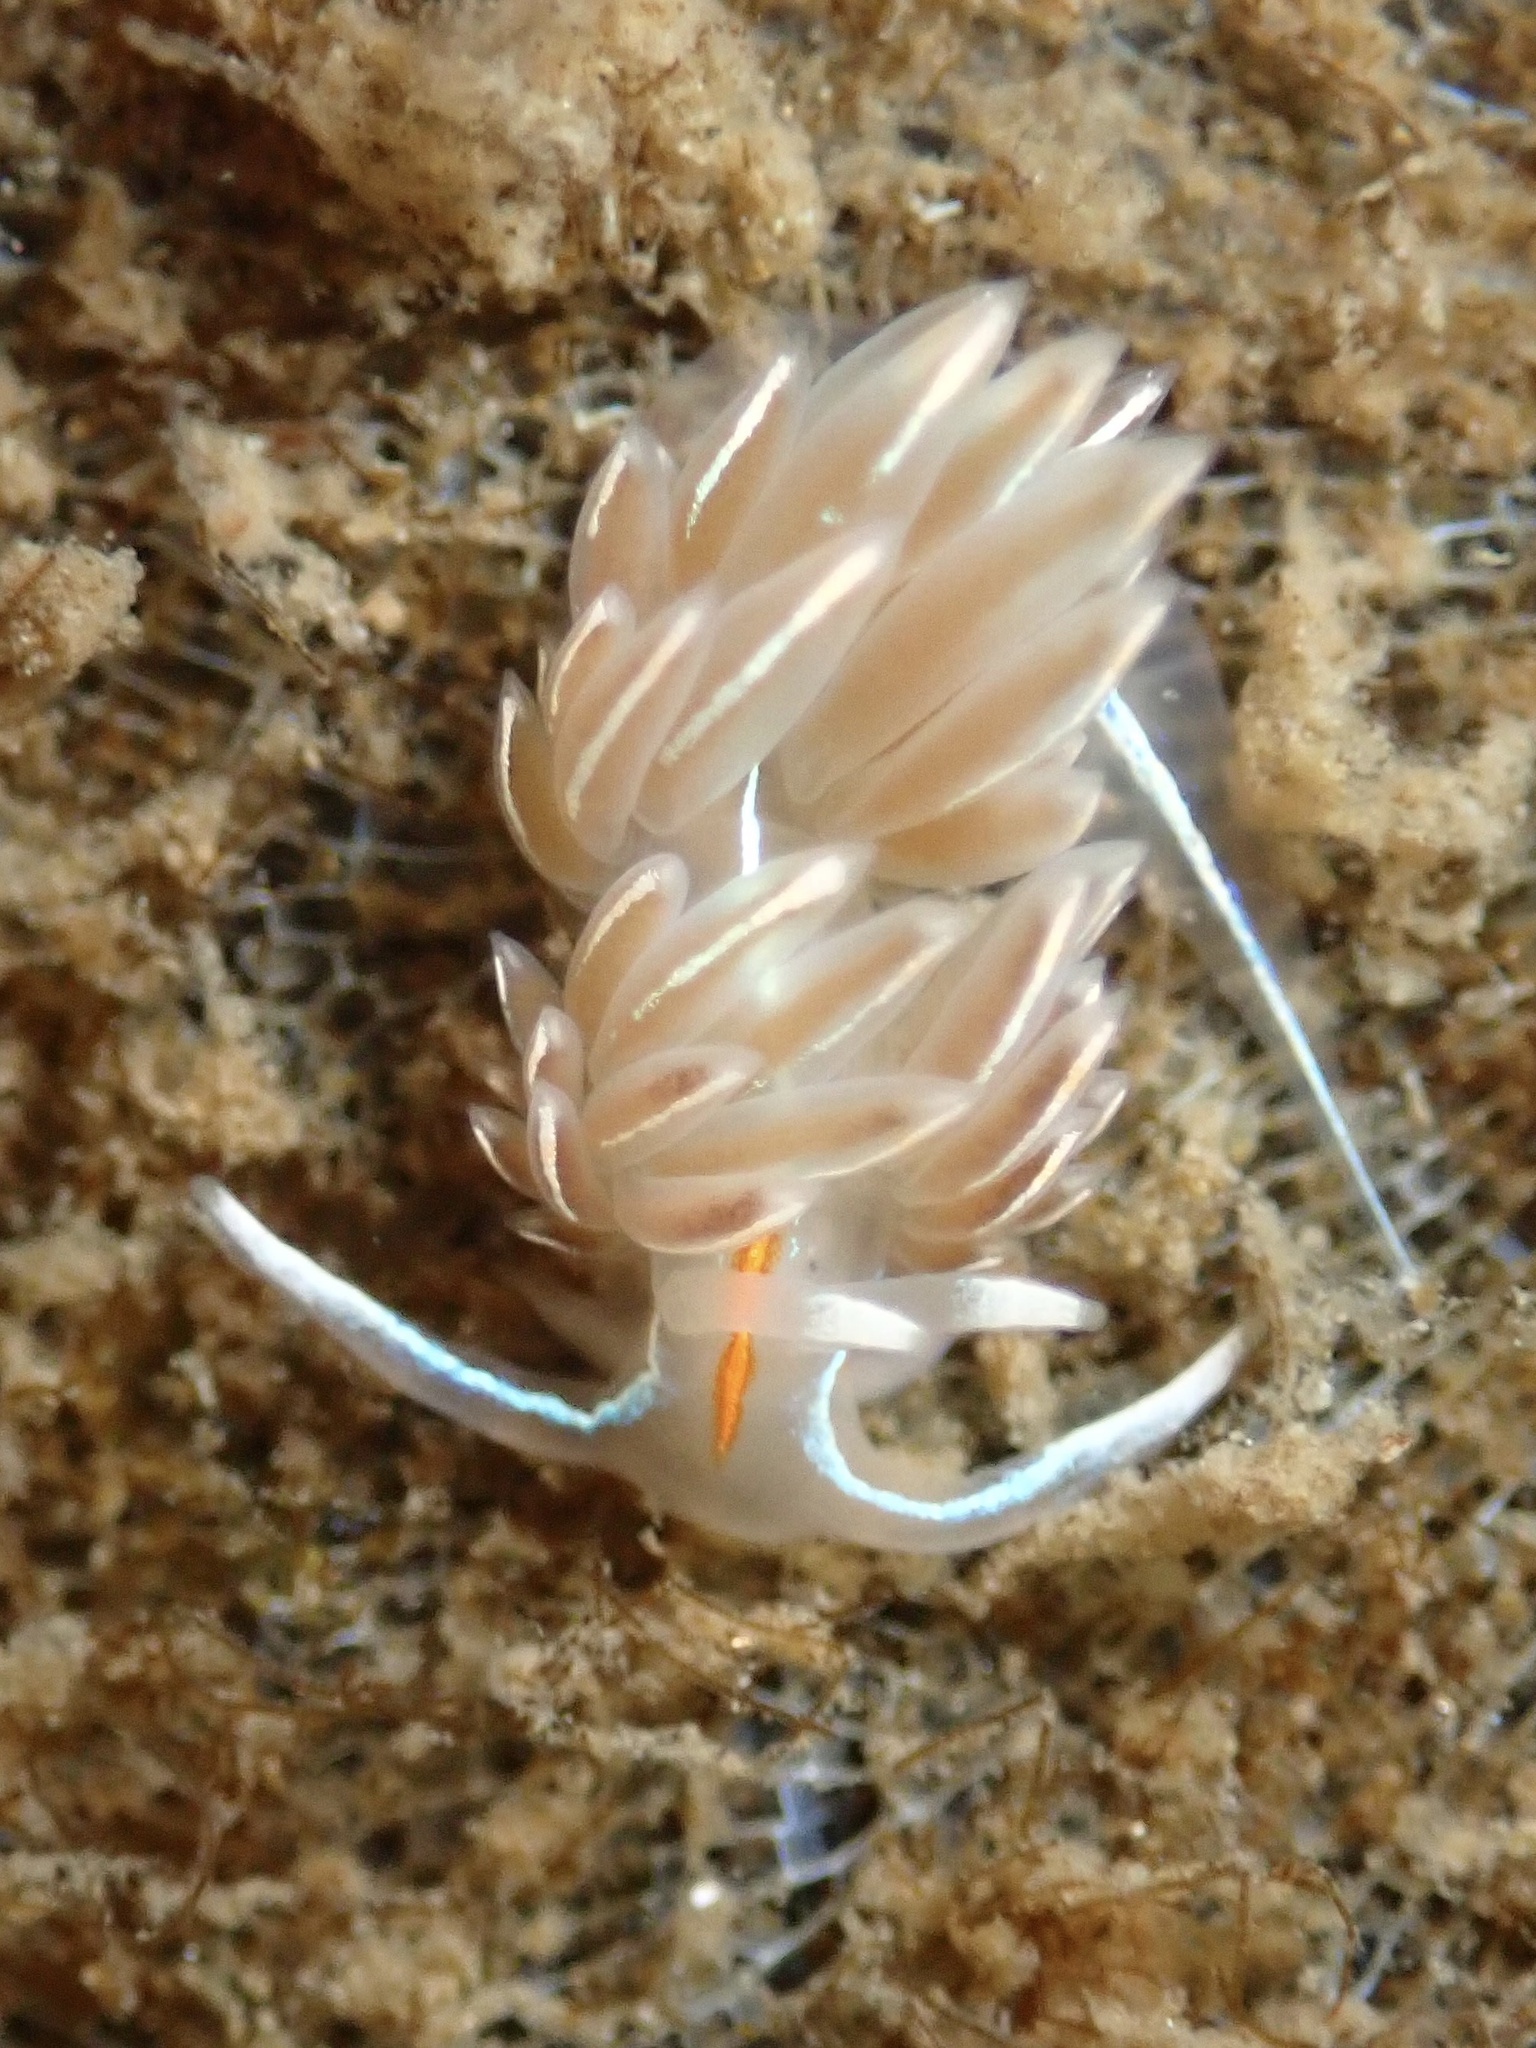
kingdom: Animalia
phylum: Mollusca
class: Gastropoda
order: Nudibranchia
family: Myrrhinidae
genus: Hermissenda
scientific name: Hermissenda crassicornis
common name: Hermissenda
